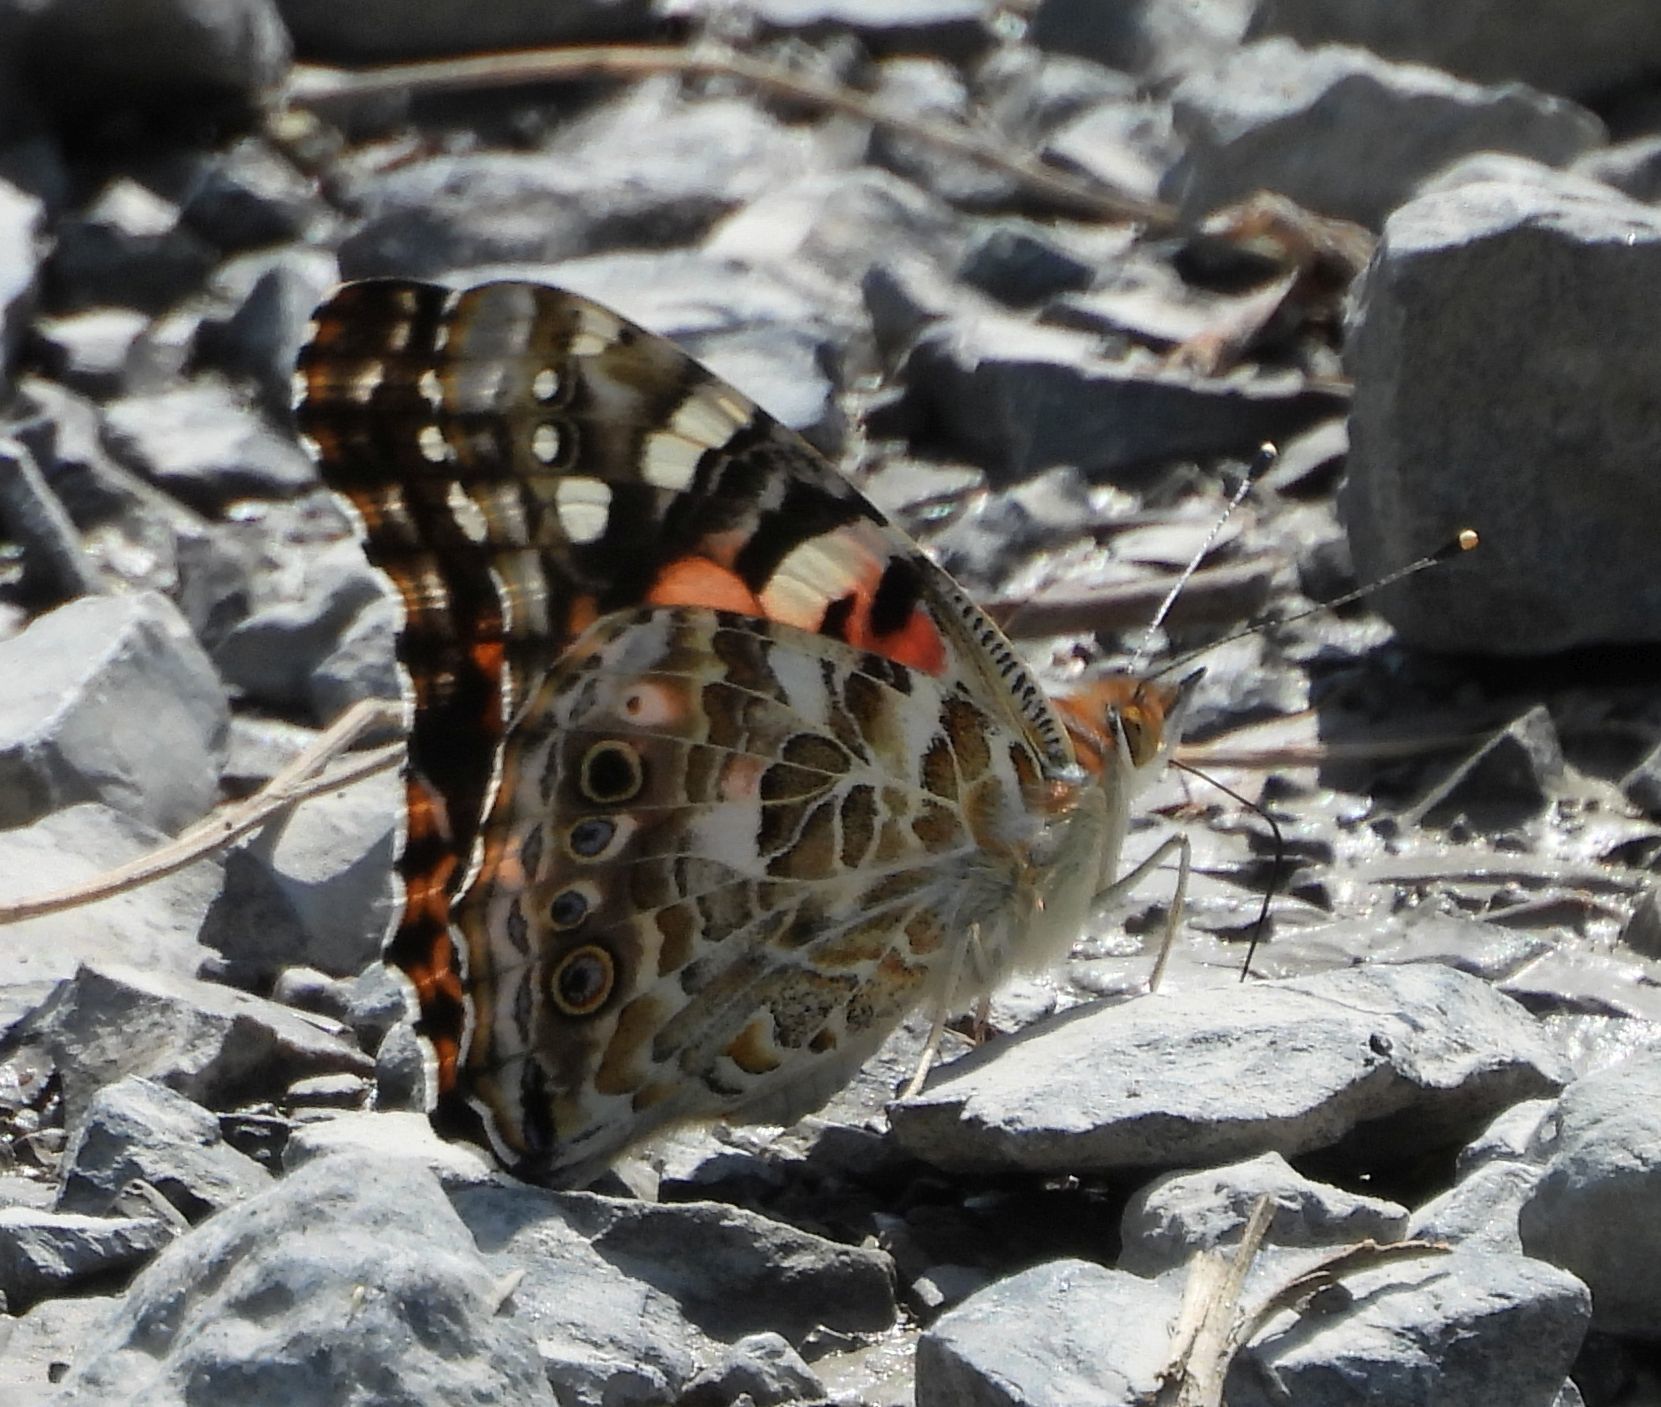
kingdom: Animalia
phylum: Arthropoda
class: Insecta
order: Lepidoptera
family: Nymphalidae
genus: Vanessa
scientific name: Vanessa cardui
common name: Painted lady
